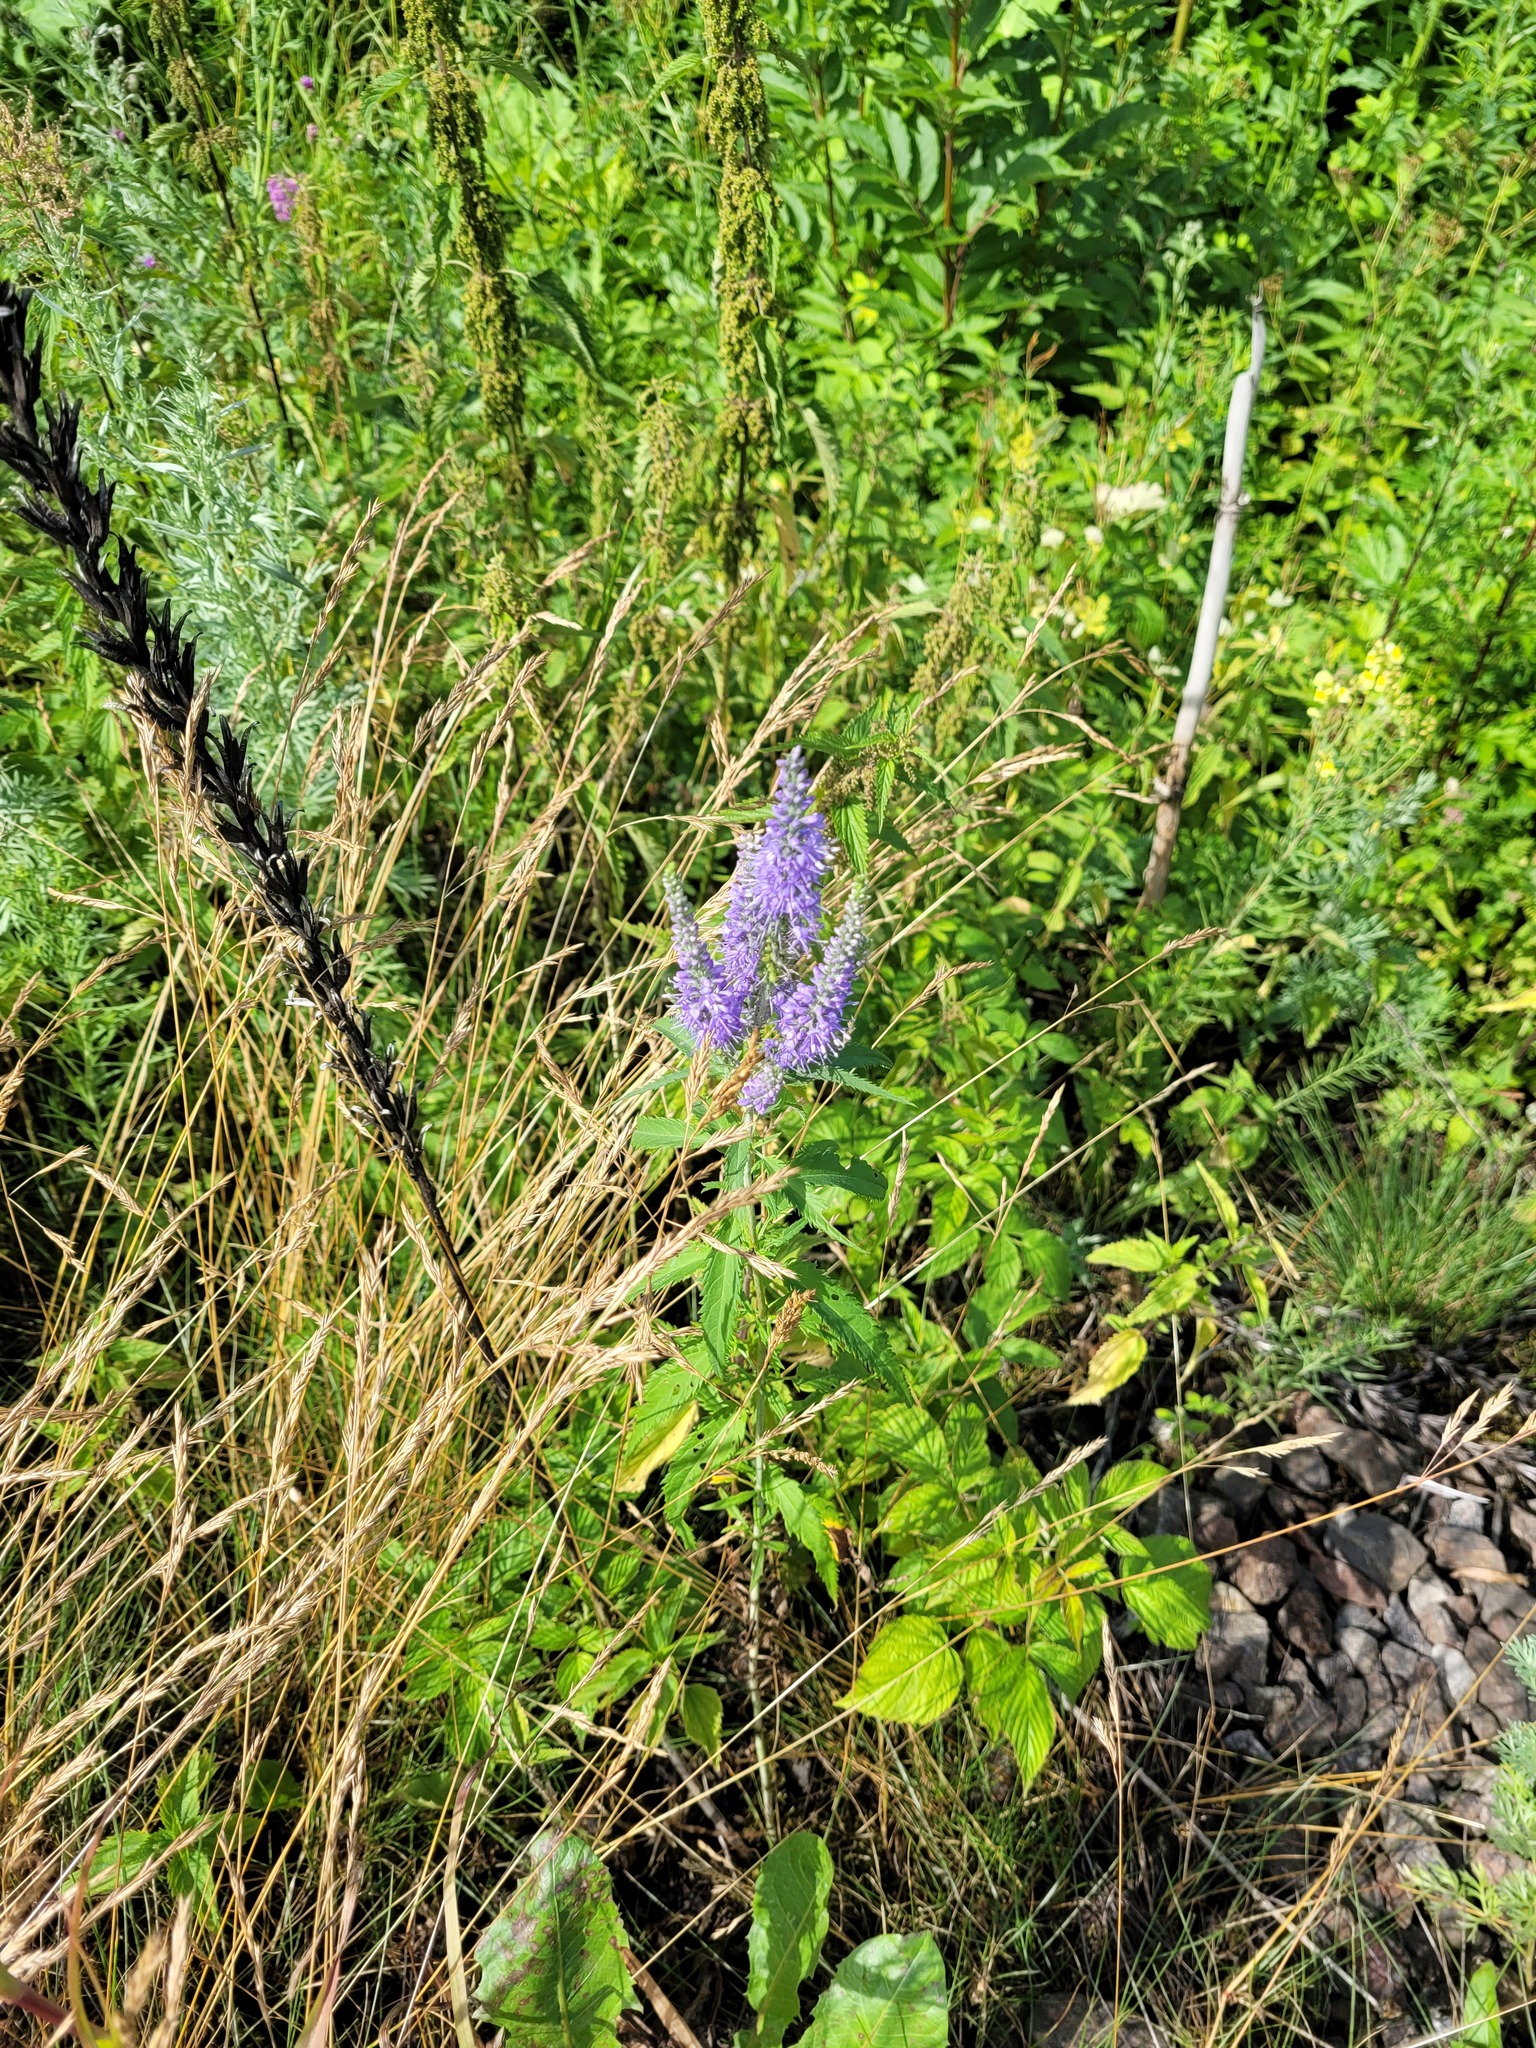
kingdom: Plantae
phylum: Tracheophyta
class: Magnoliopsida
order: Lamiales
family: Plantaginaceae
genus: Veronica
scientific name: Veronica longifolia
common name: Garden speedwell
